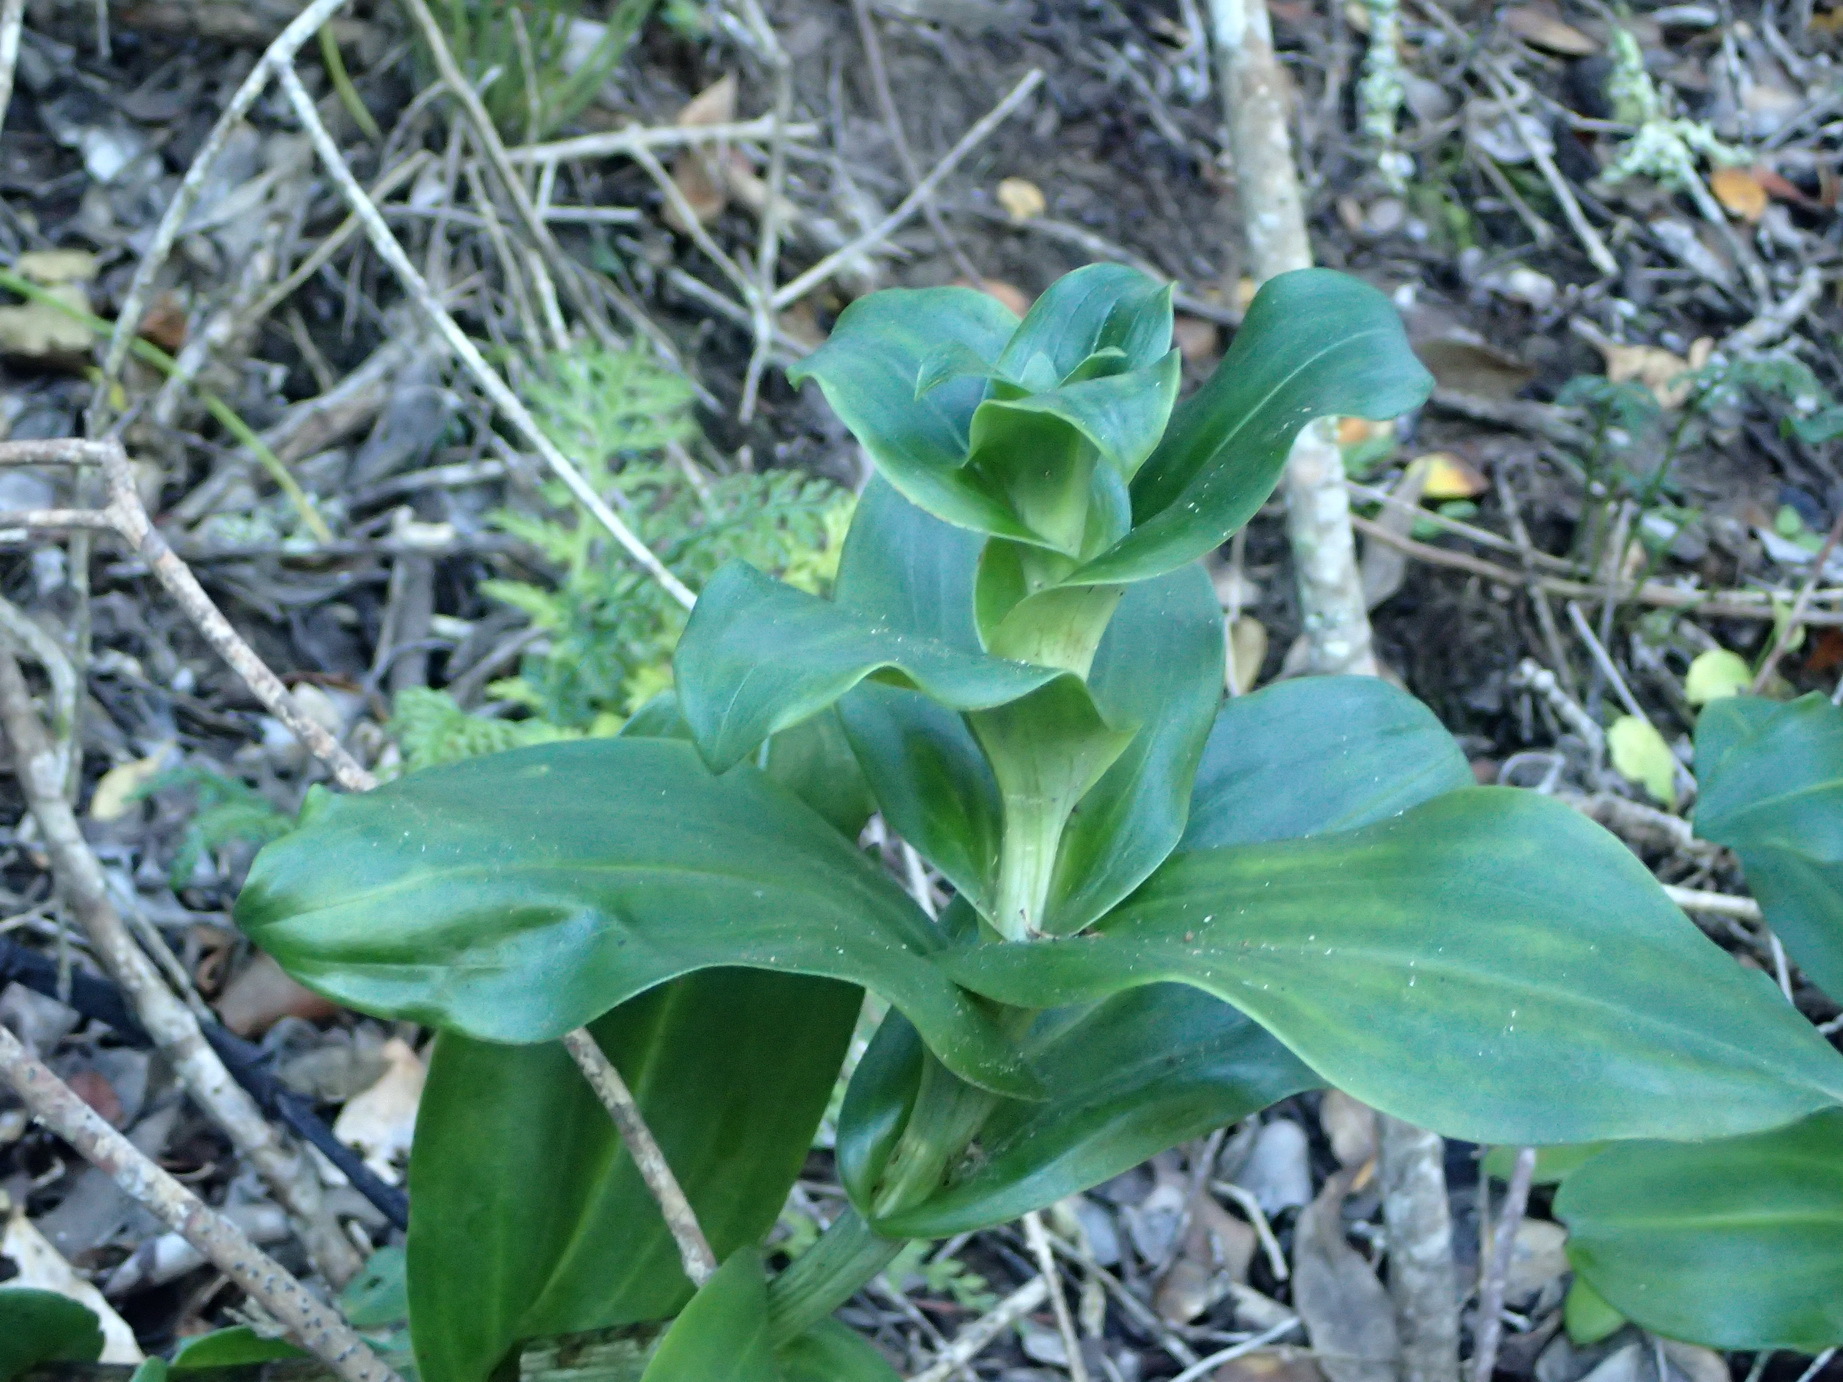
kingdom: Plantae
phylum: Tracheophyta
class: Liliopsida
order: Asparagales
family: Orchidaceae
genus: Bonatea
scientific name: Bonatea speciosa
